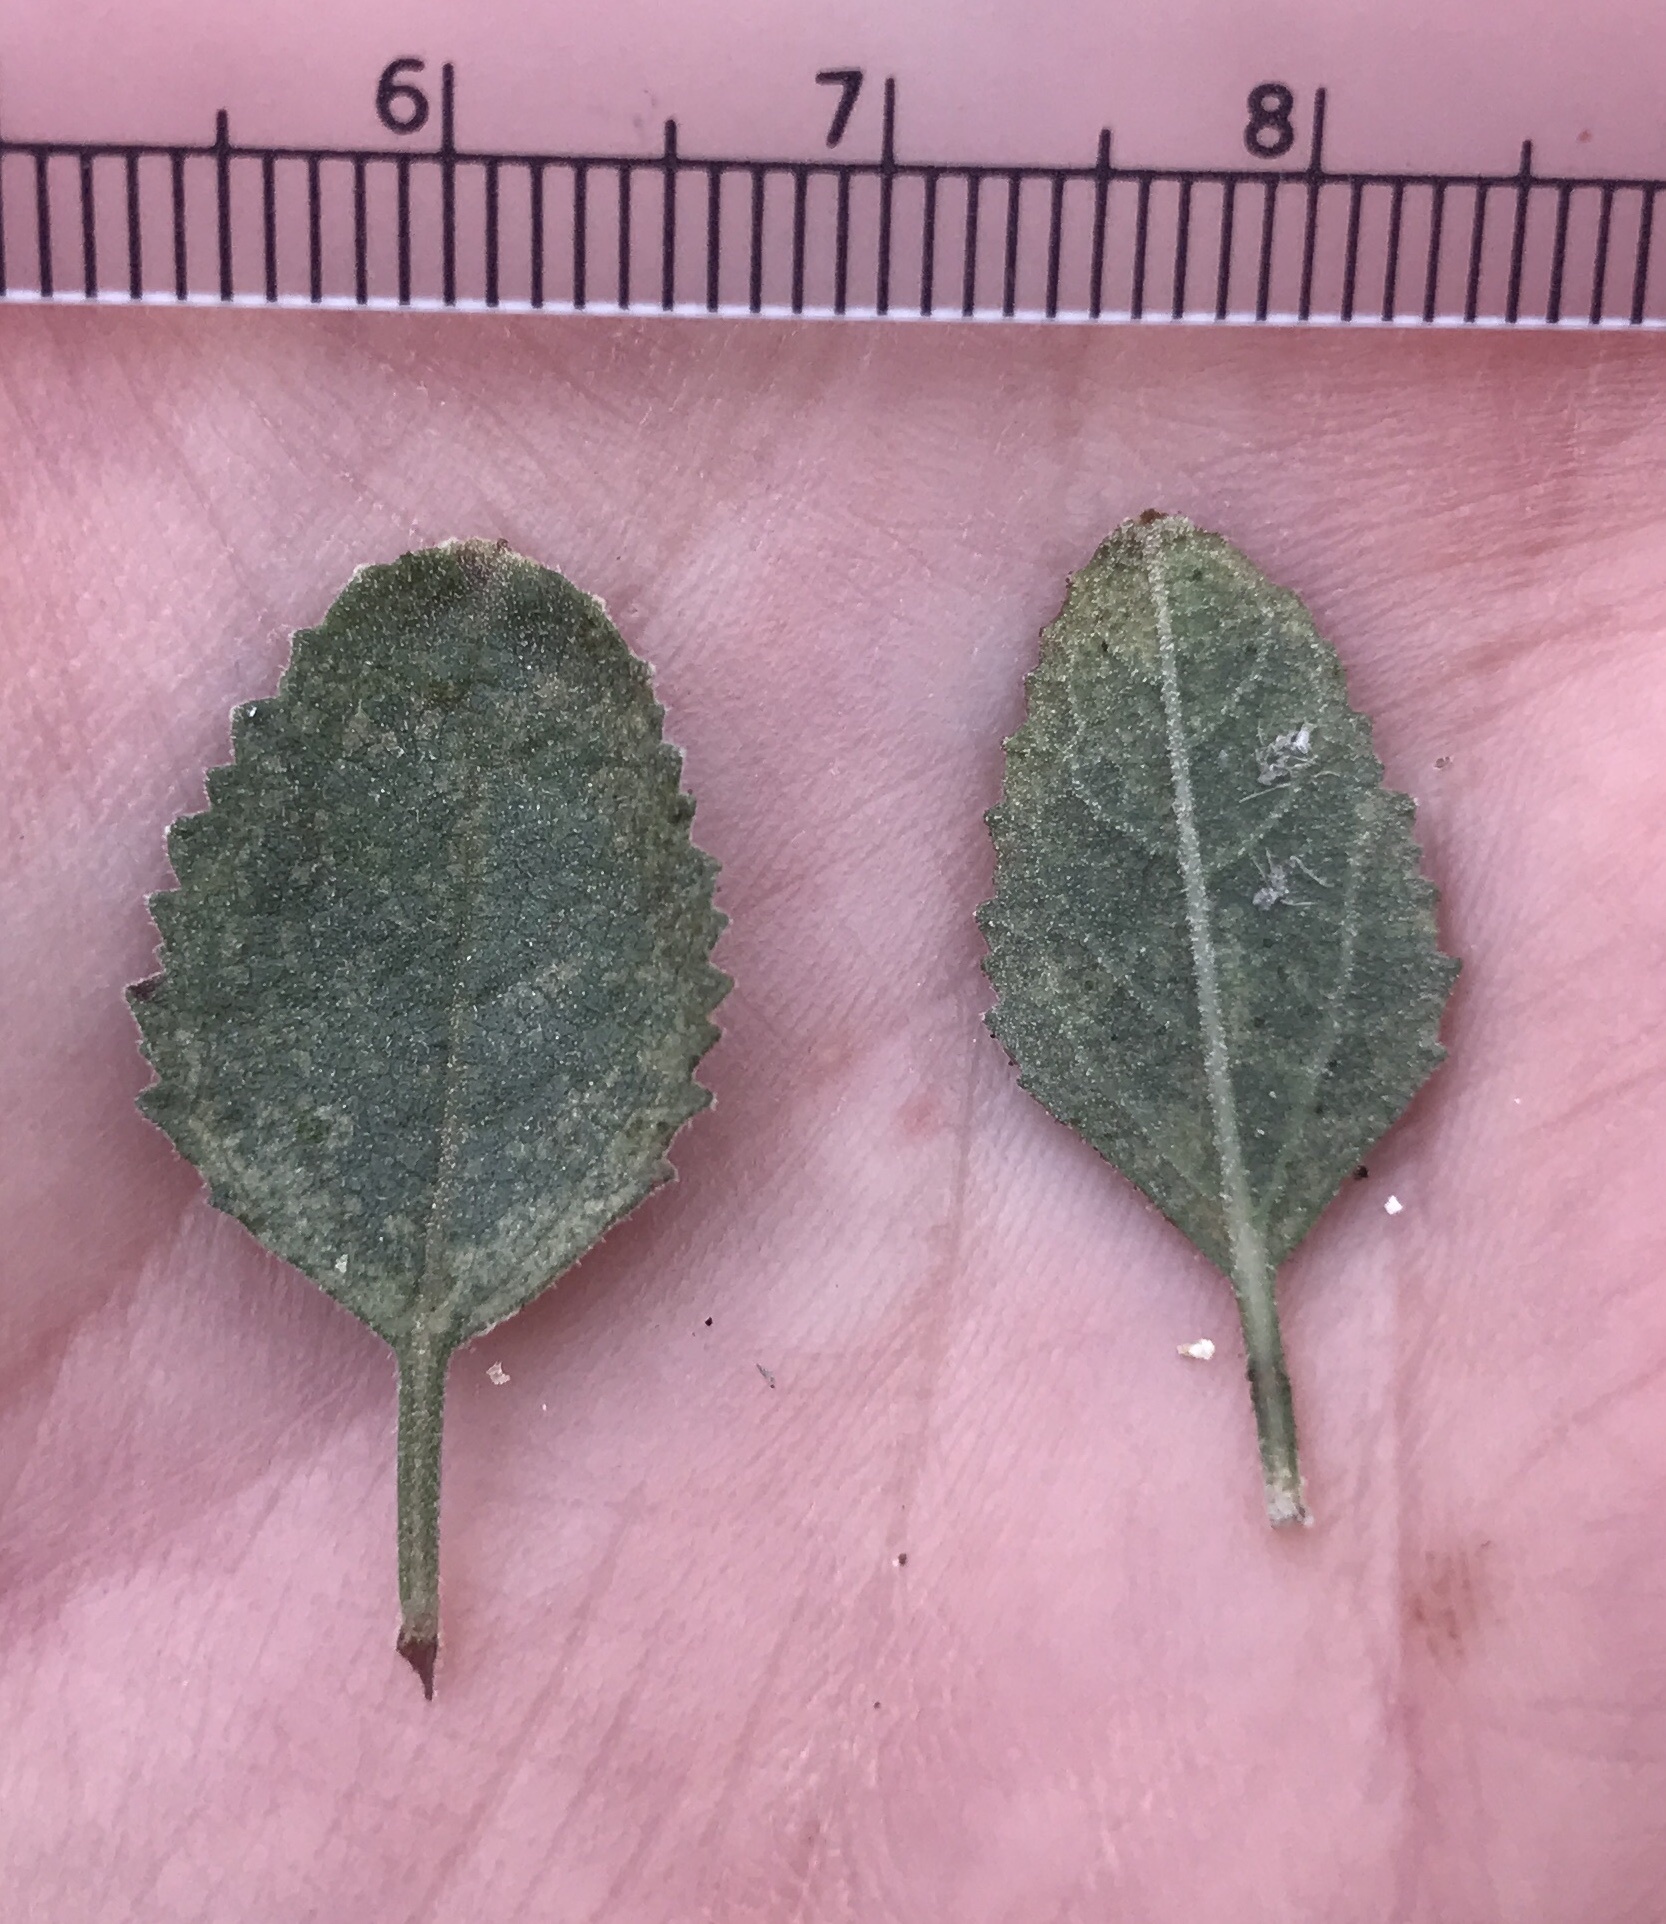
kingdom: Plantae
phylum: Tracheophyta
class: Magnoliopsida
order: Lamiales
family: Lamiaceae
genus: Condea
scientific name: Condea emoryi
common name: Chia
